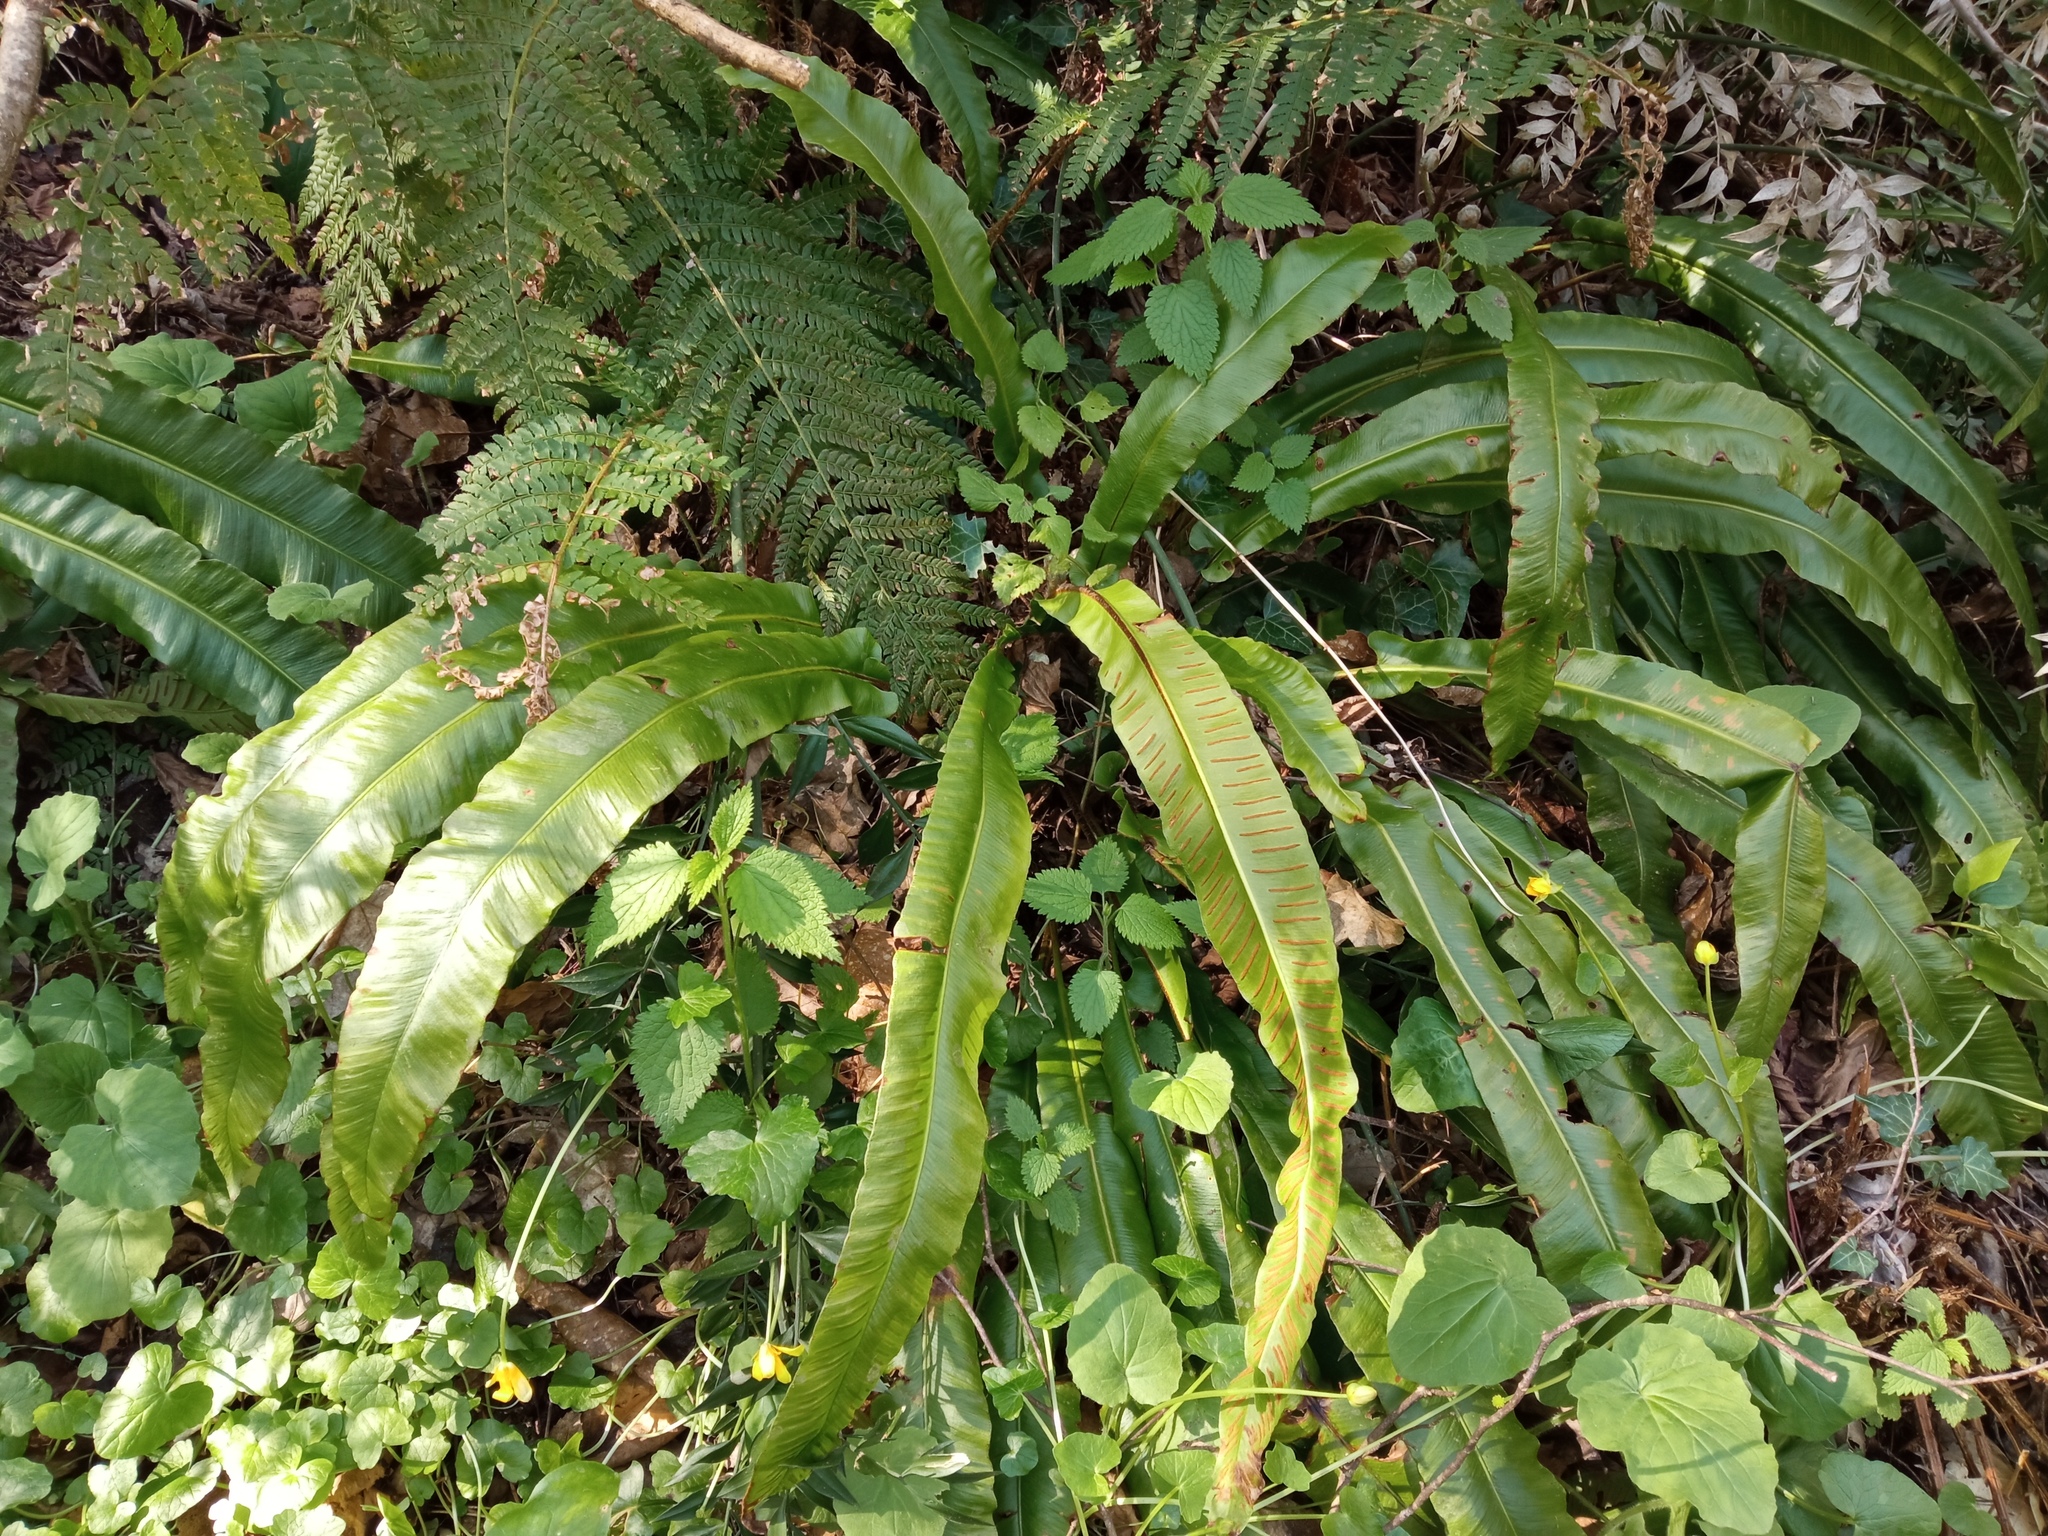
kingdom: Plantae
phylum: Tracheophyta
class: Polypodiopsida
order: Polypodiales
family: Aspleniaceae
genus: Asplenium
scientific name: Asplenium scolopendrium
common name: Hart's-tongue fern
